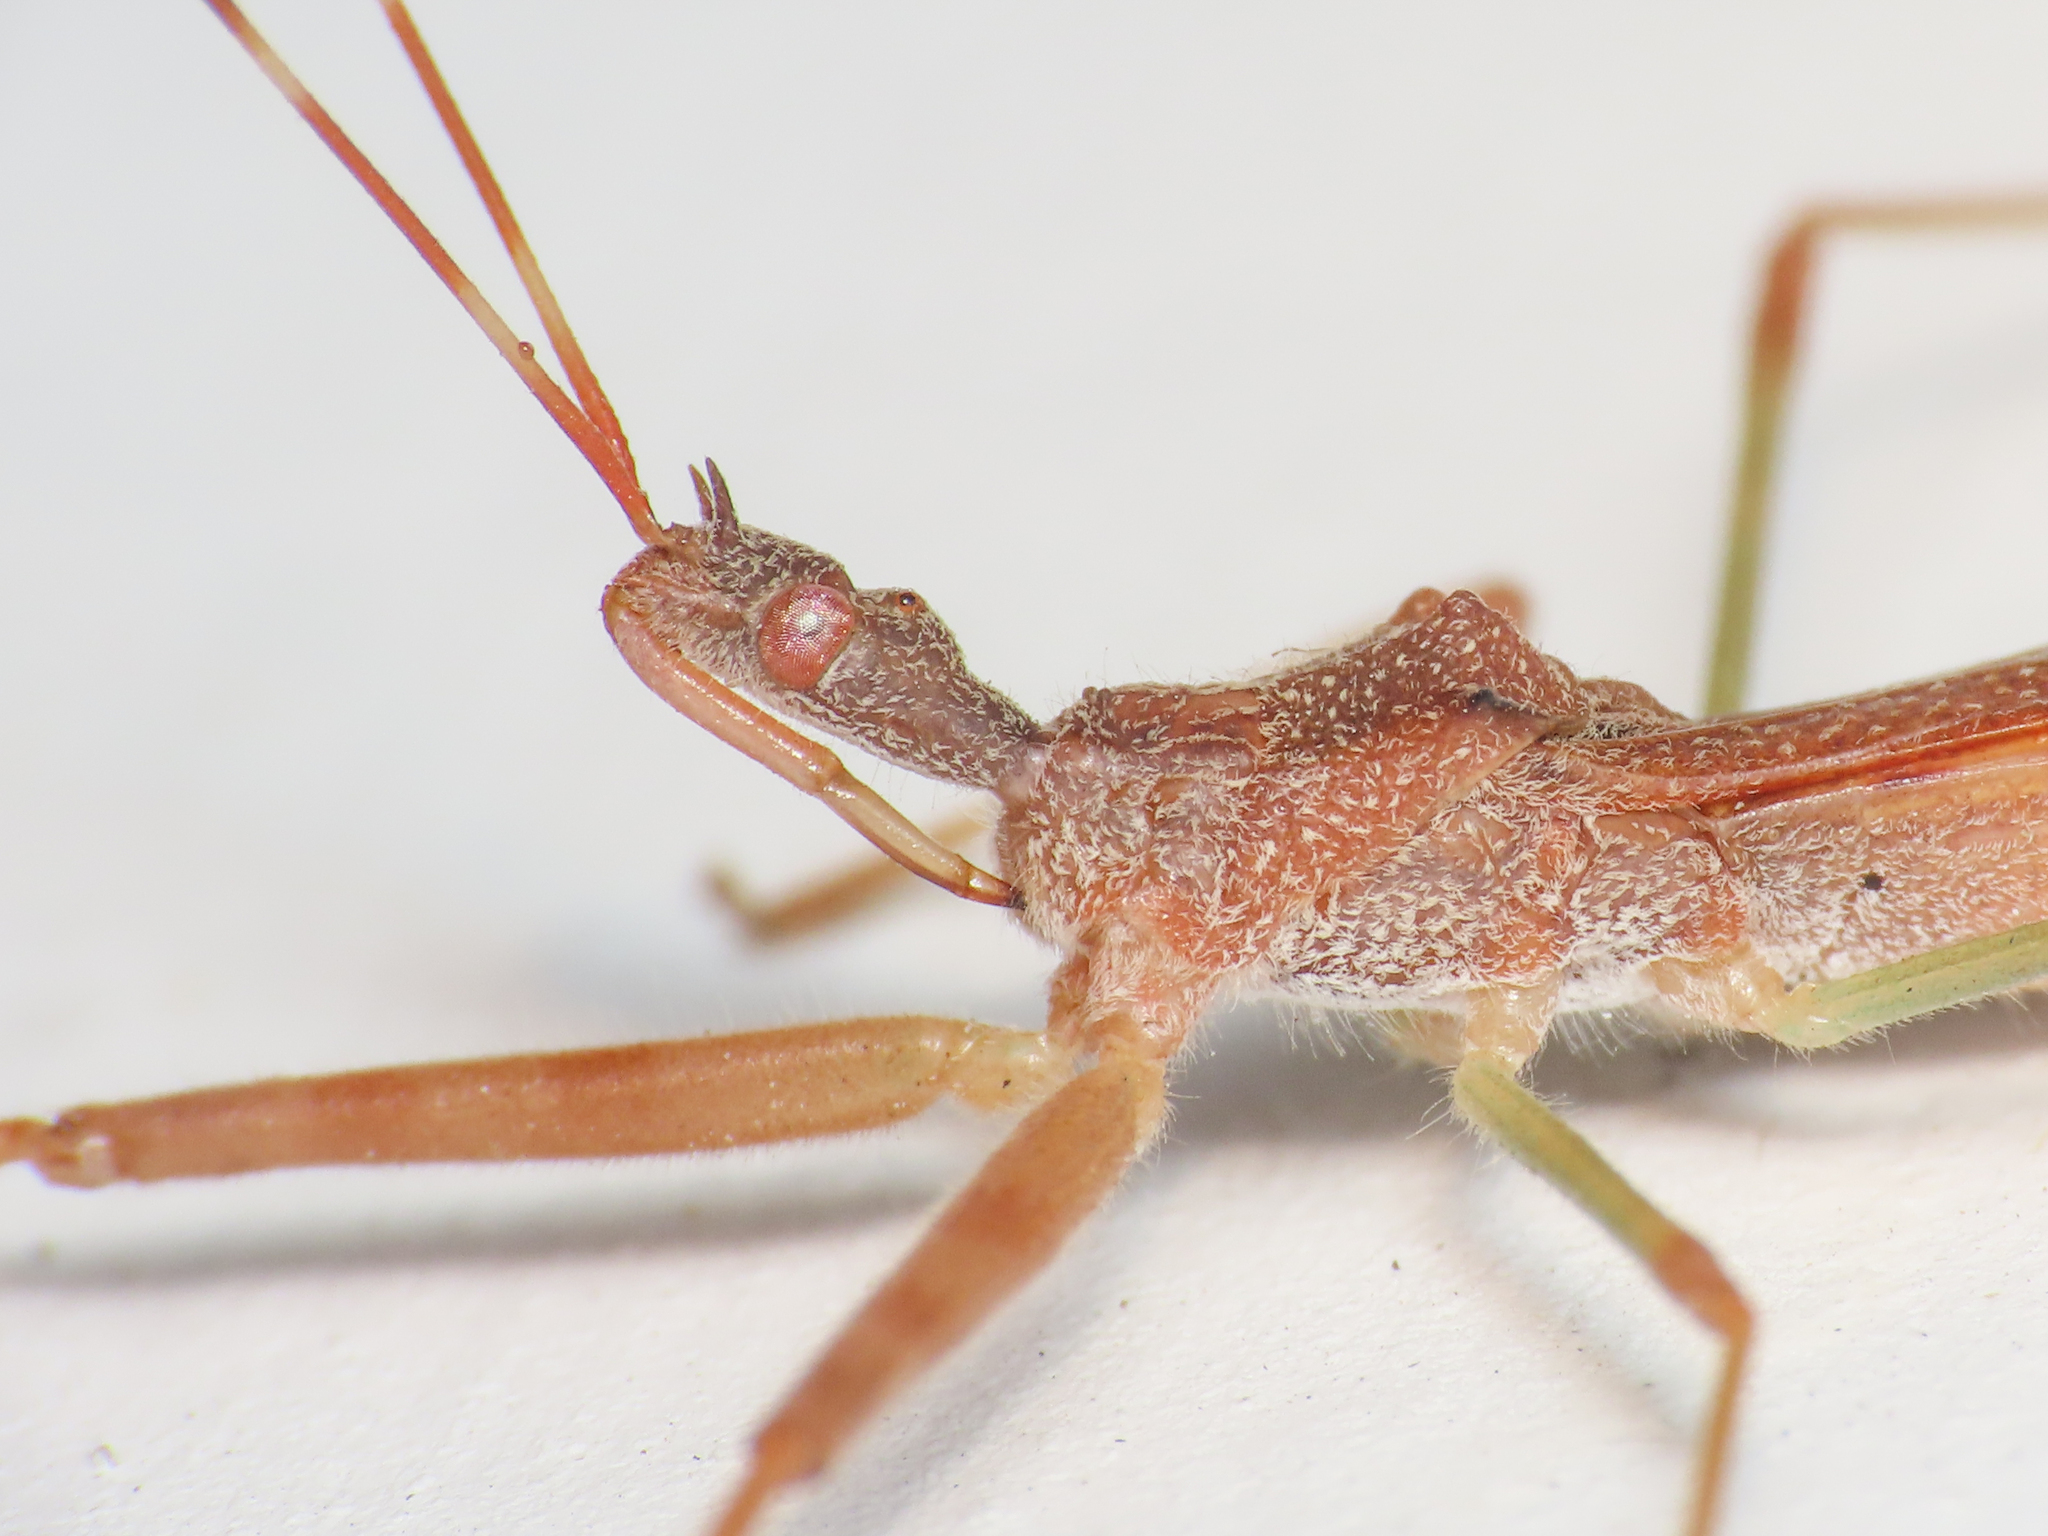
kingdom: Animalia
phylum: Arthropoda
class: Insecta
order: Hemiptera
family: Reduviidae
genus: Nagusta
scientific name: Nagusta goedelii
